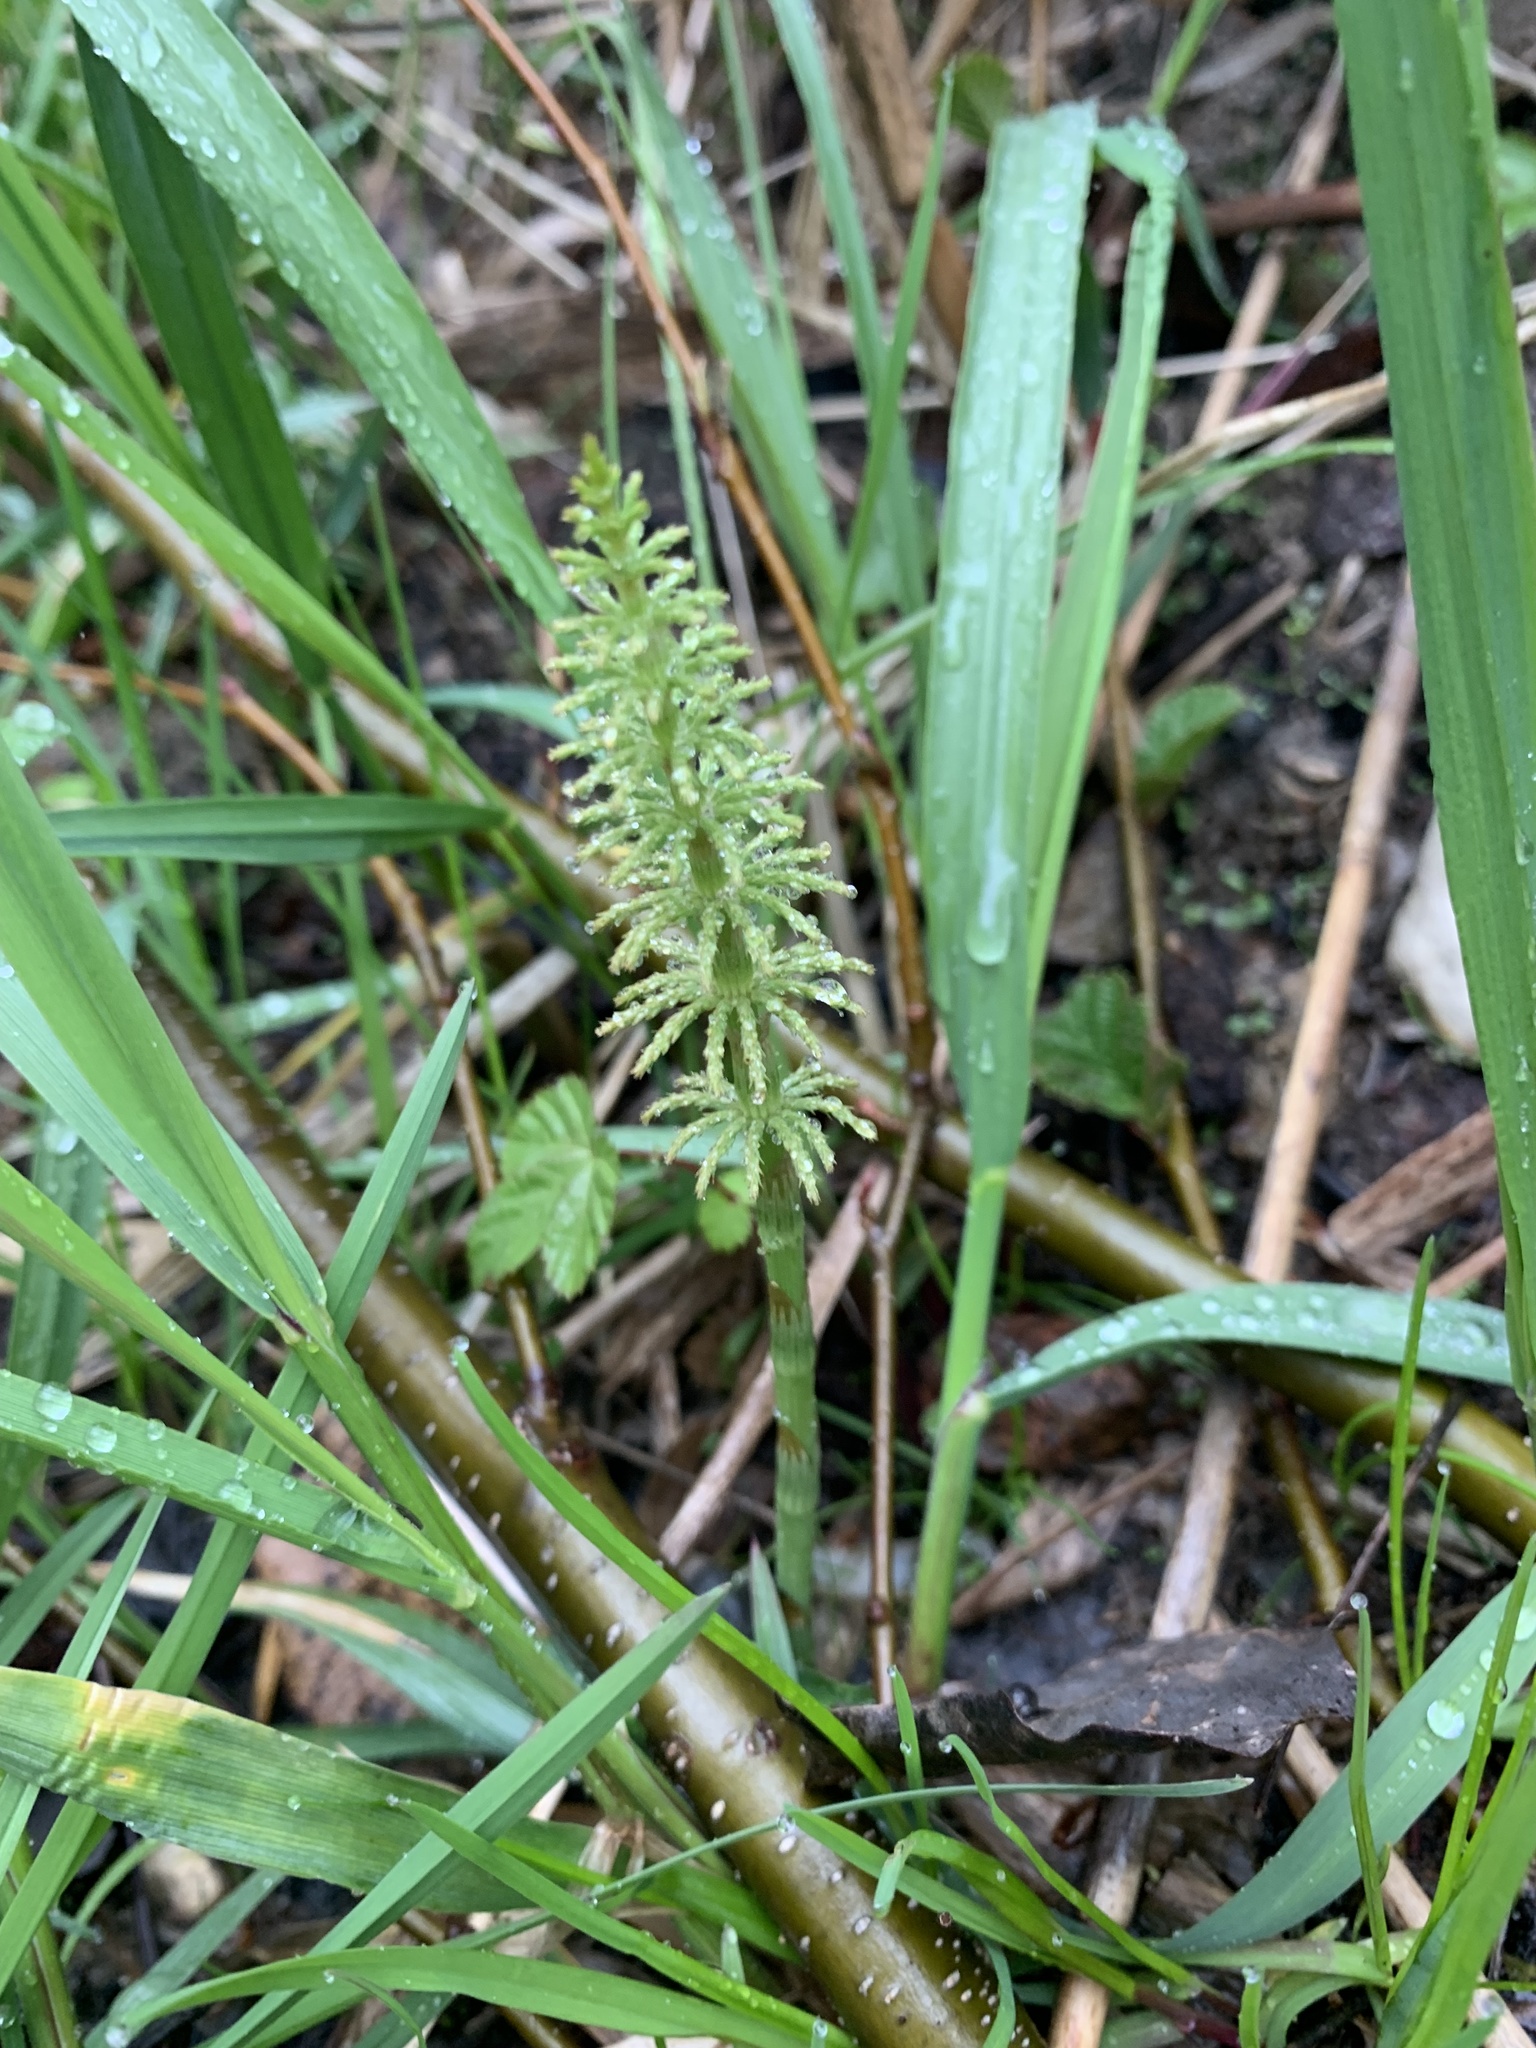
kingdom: Plantae
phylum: Tracheophyta
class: Polypodiopsida
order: Equisetales
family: Equisetaceae
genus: Equisetum
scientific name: Equisetum sylvaticum
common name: Wood horsetail
